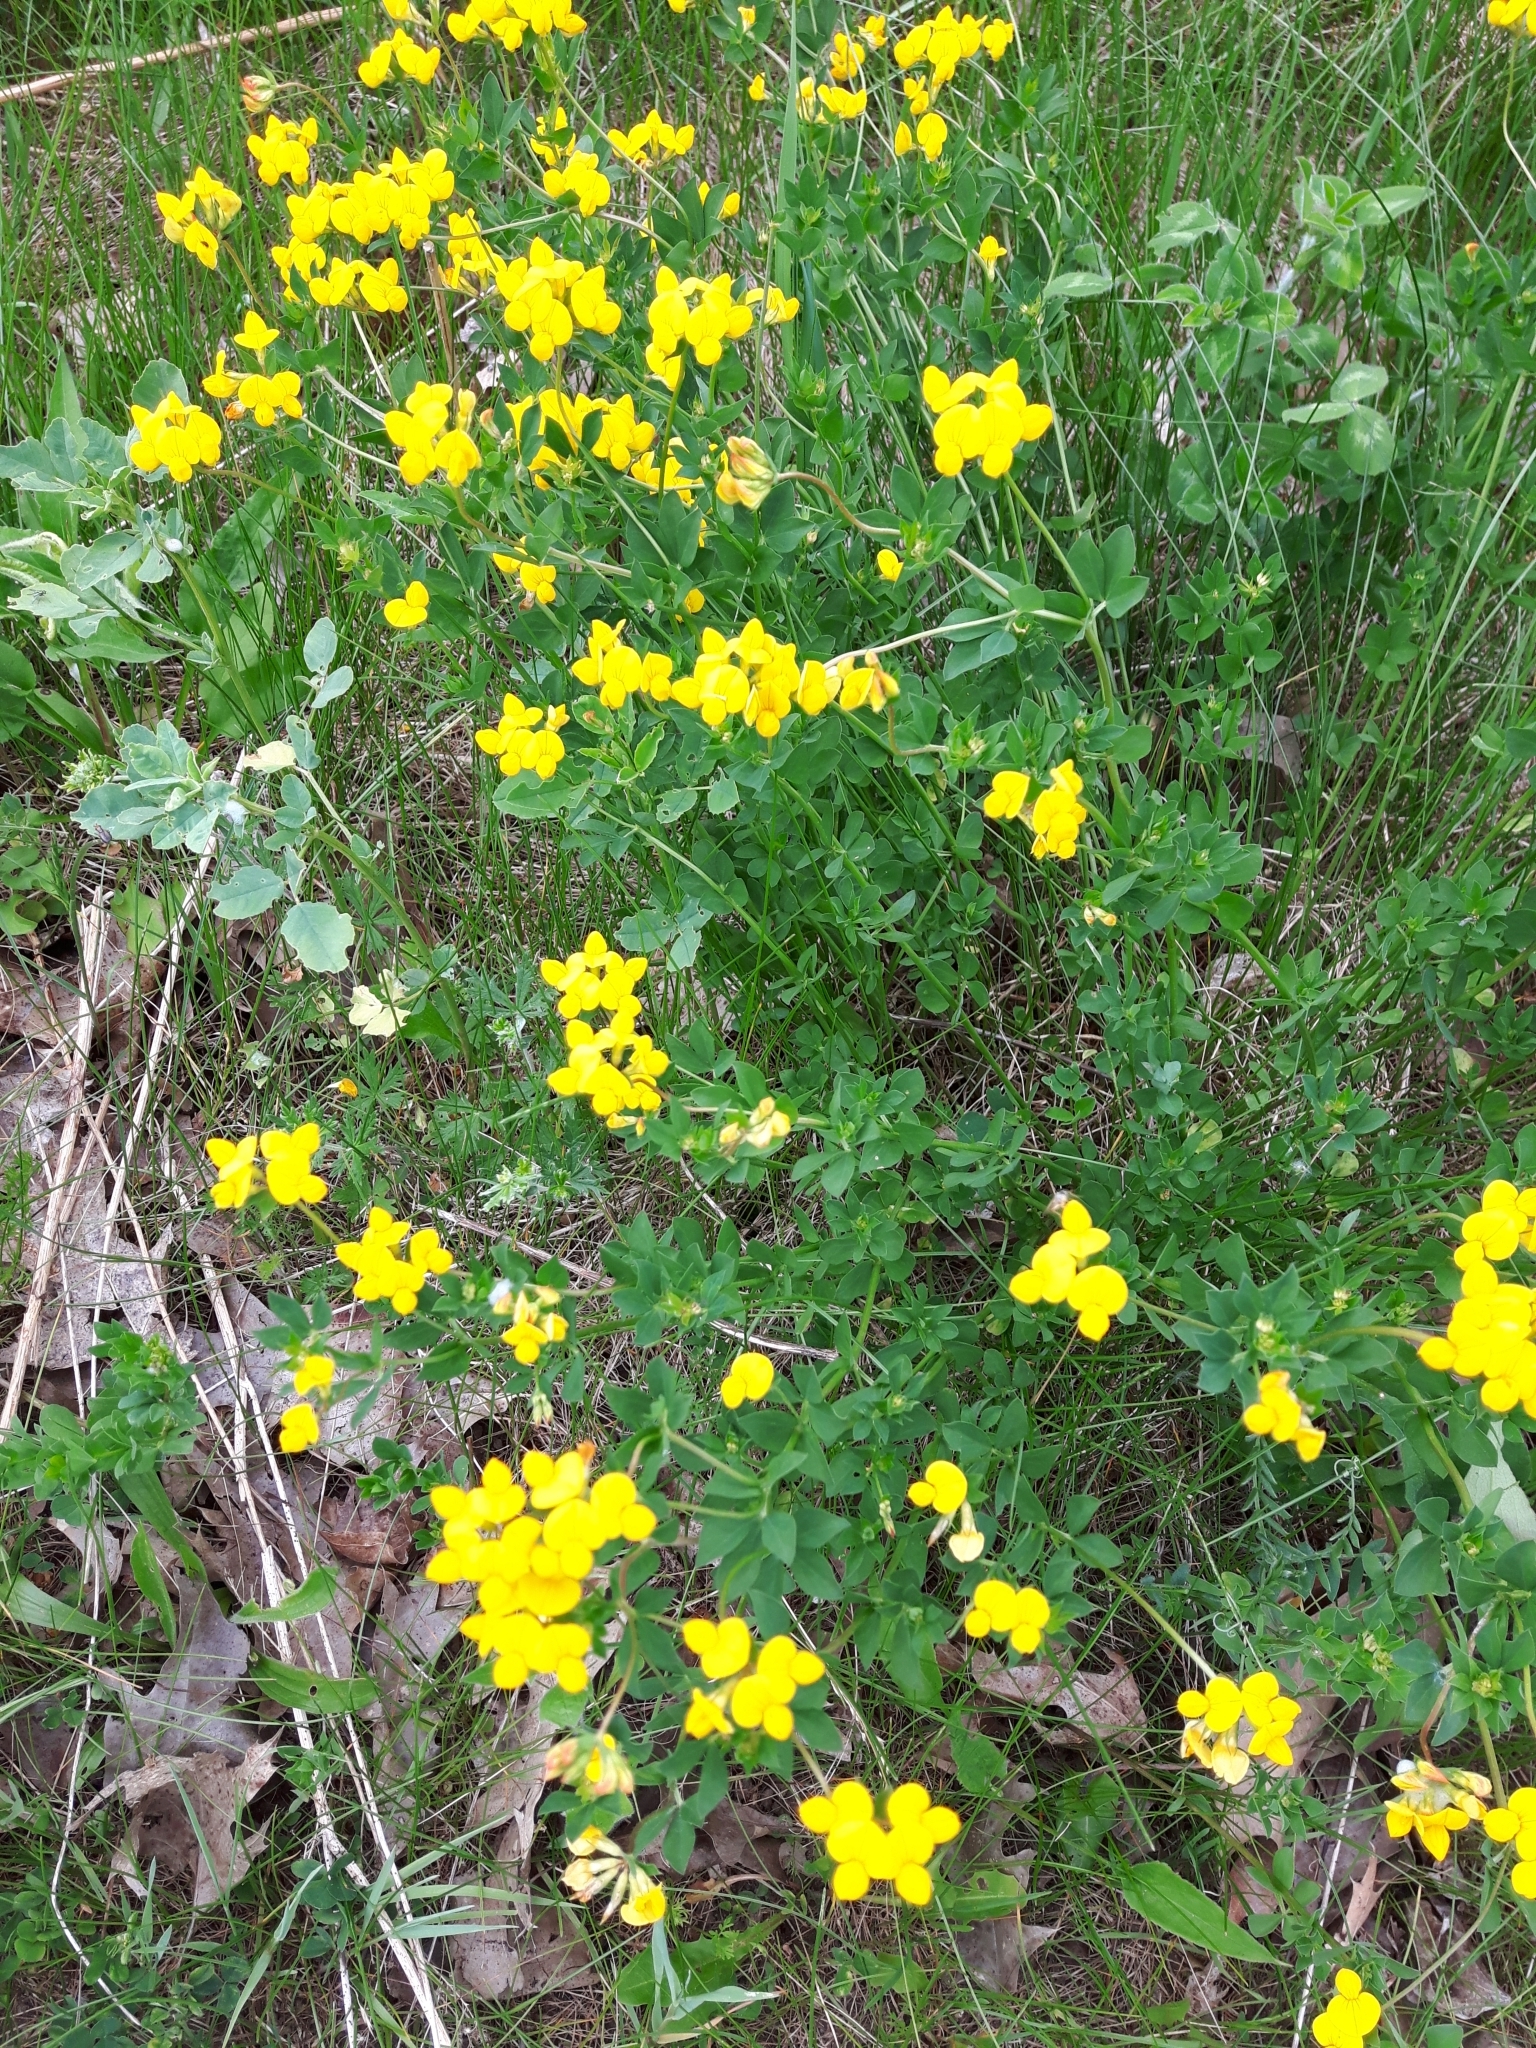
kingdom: Plantae
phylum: Tracheophyta
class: Magnoliopsida
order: Fabales
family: Fabaceae
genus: Lotus
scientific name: Lotus corniculatus
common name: Common bird's-foot-trefoil
